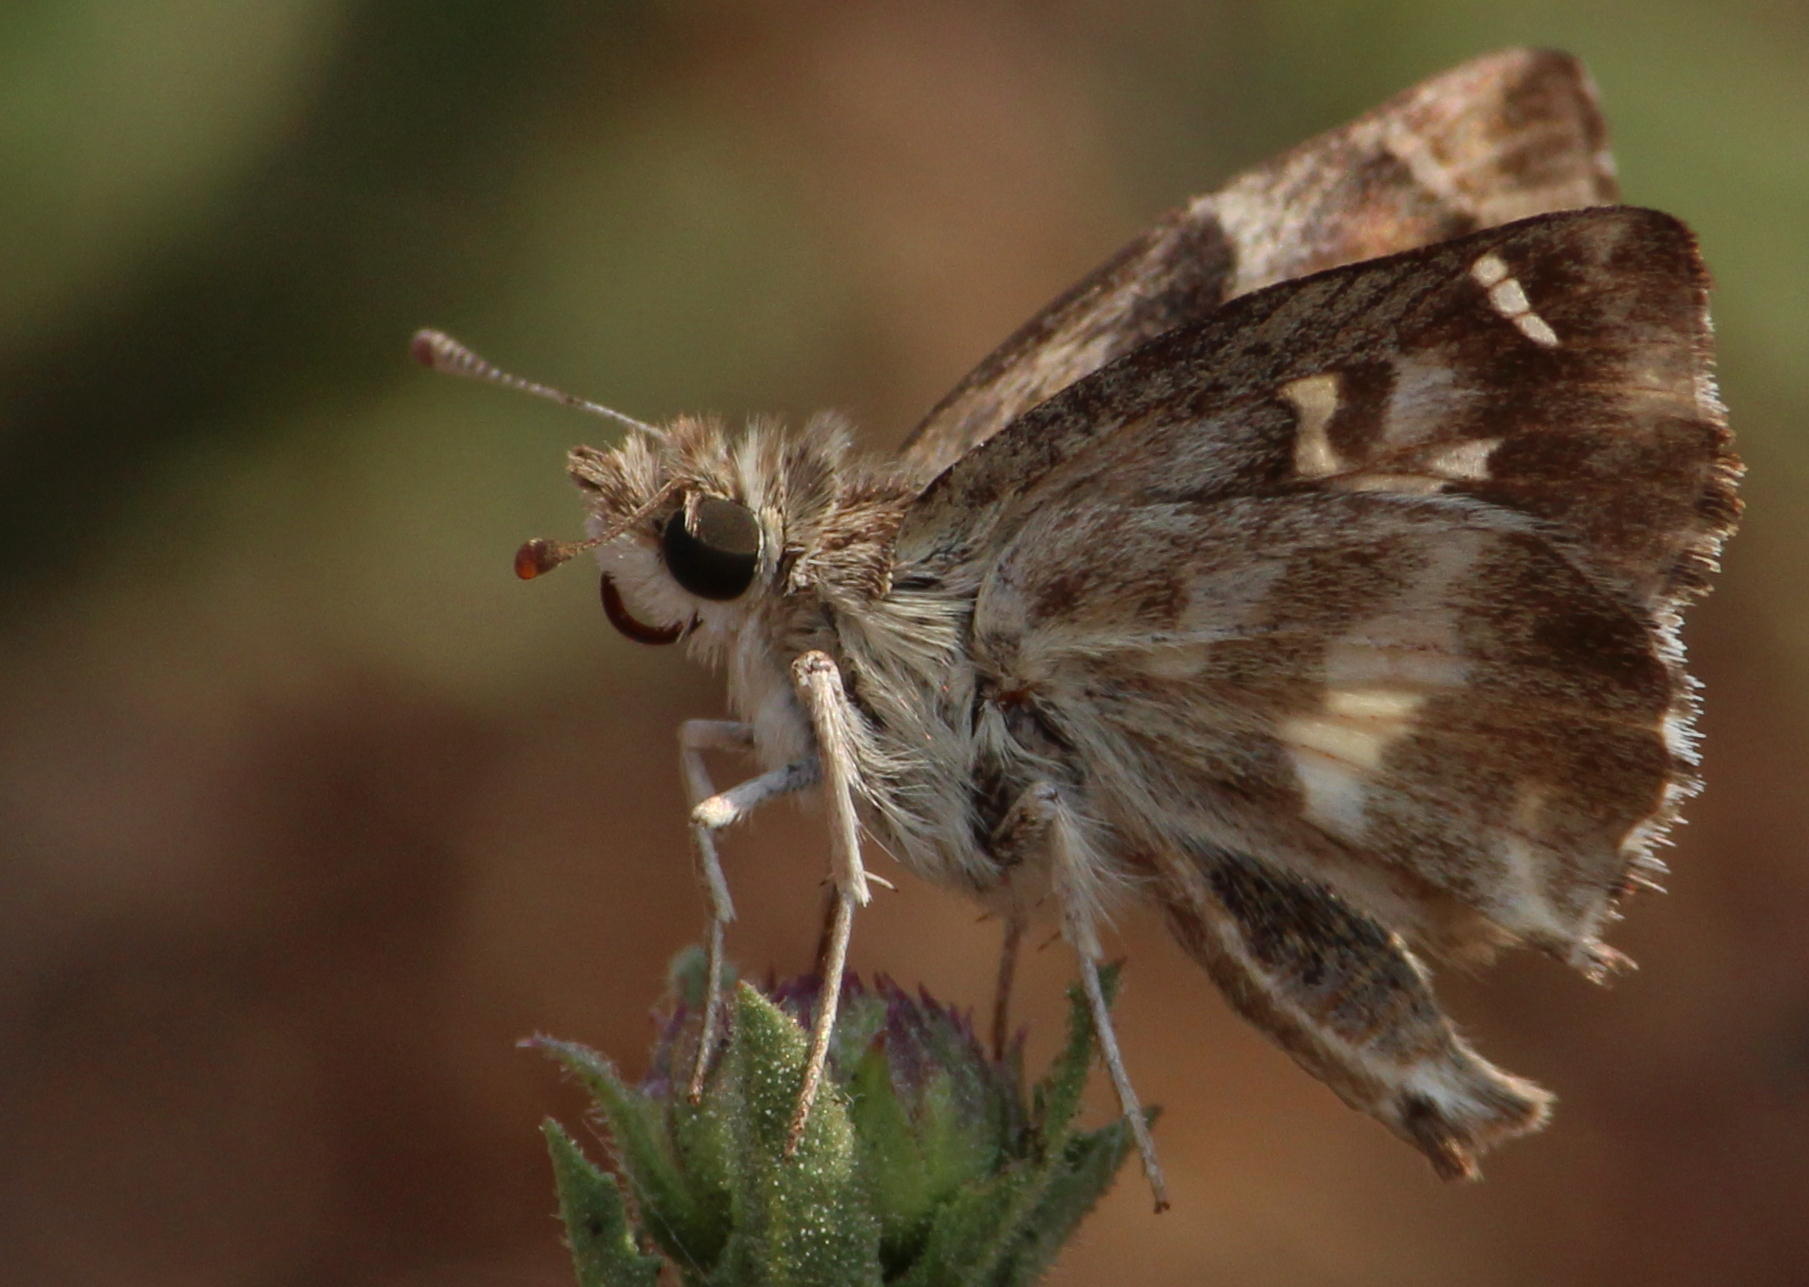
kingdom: Animalia
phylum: Arthropoda
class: Insecta
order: Lepidoptera
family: Hesperiidae
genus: Gomalia
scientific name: Gomalia elma
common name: Green-marbled skipper
